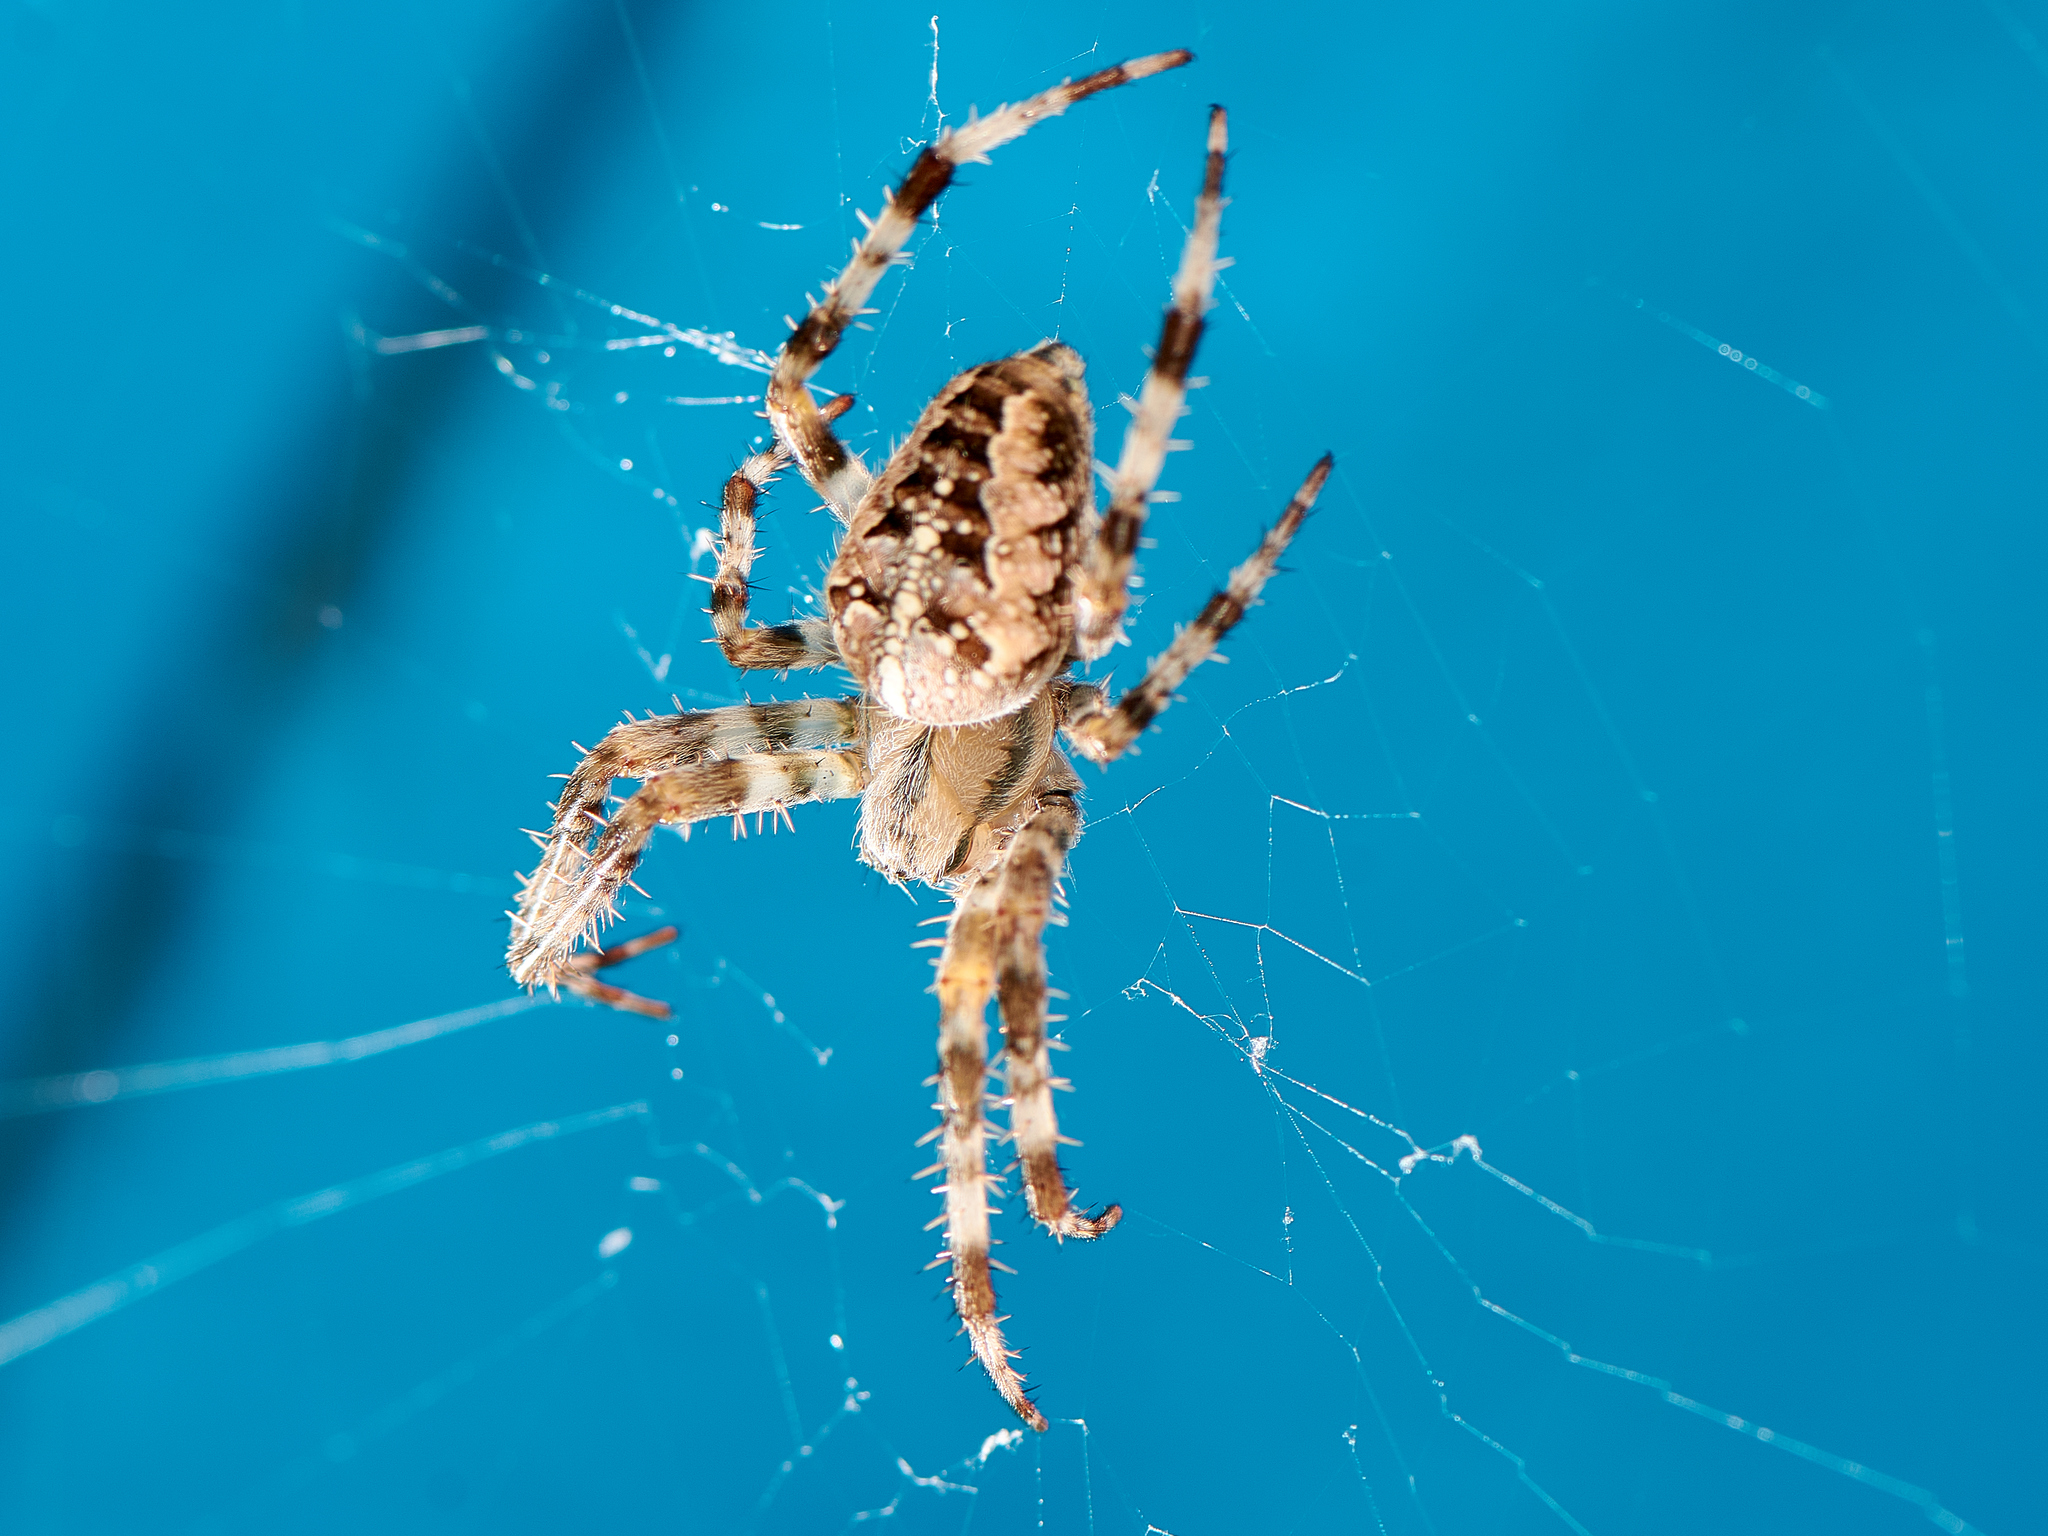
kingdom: Animalia
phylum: Arthropoda
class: Arachnida
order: Araneae
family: Araneidae
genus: Araneus
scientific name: Araneus diadematus
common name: Cross orbweaver
